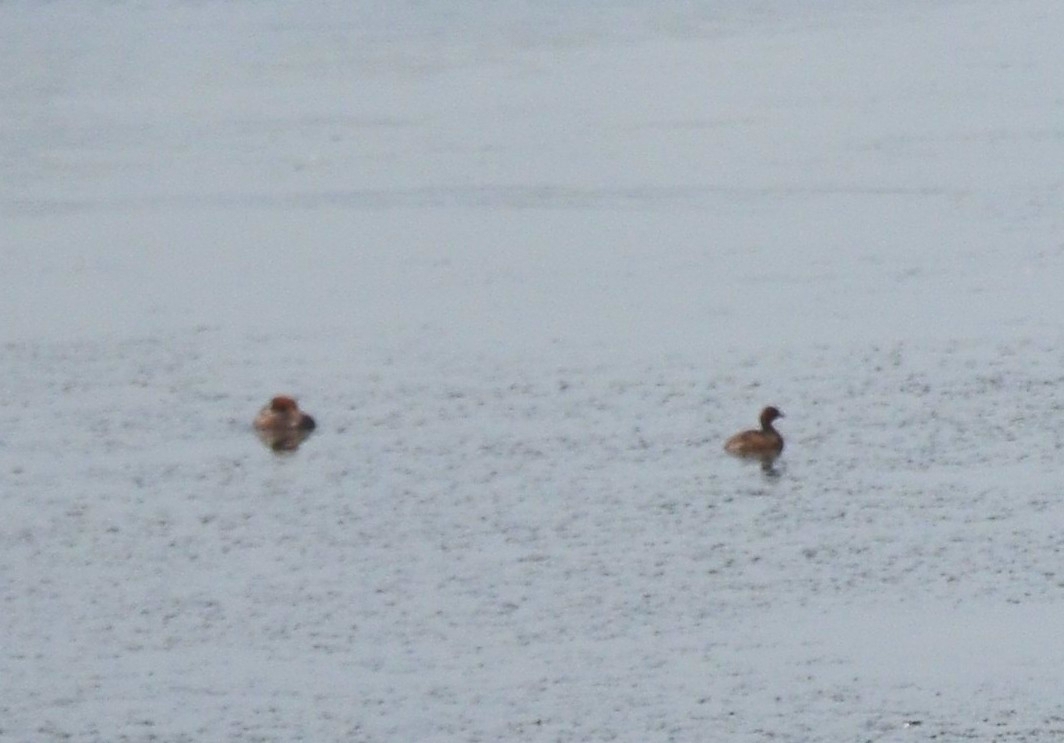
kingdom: Animalia
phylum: Chordata
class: Aves
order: Podicipediformes
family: Podicipedidae
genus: Tachybaptus
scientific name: Tachybaptus ruficollis
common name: Little grebe
